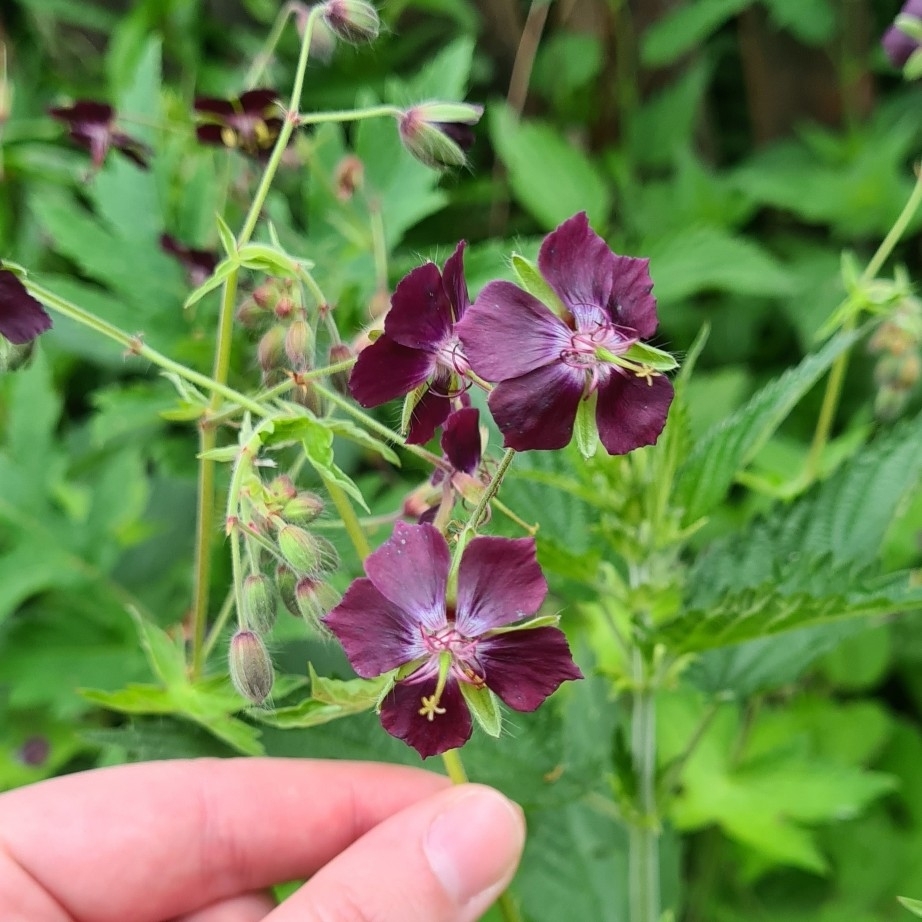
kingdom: Plantae
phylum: Tracheophyta
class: Magnoliopsida
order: Geraniales
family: Geraniaceae
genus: Geranium
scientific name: Geranium phaeum
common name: Dusky crane's-bill
